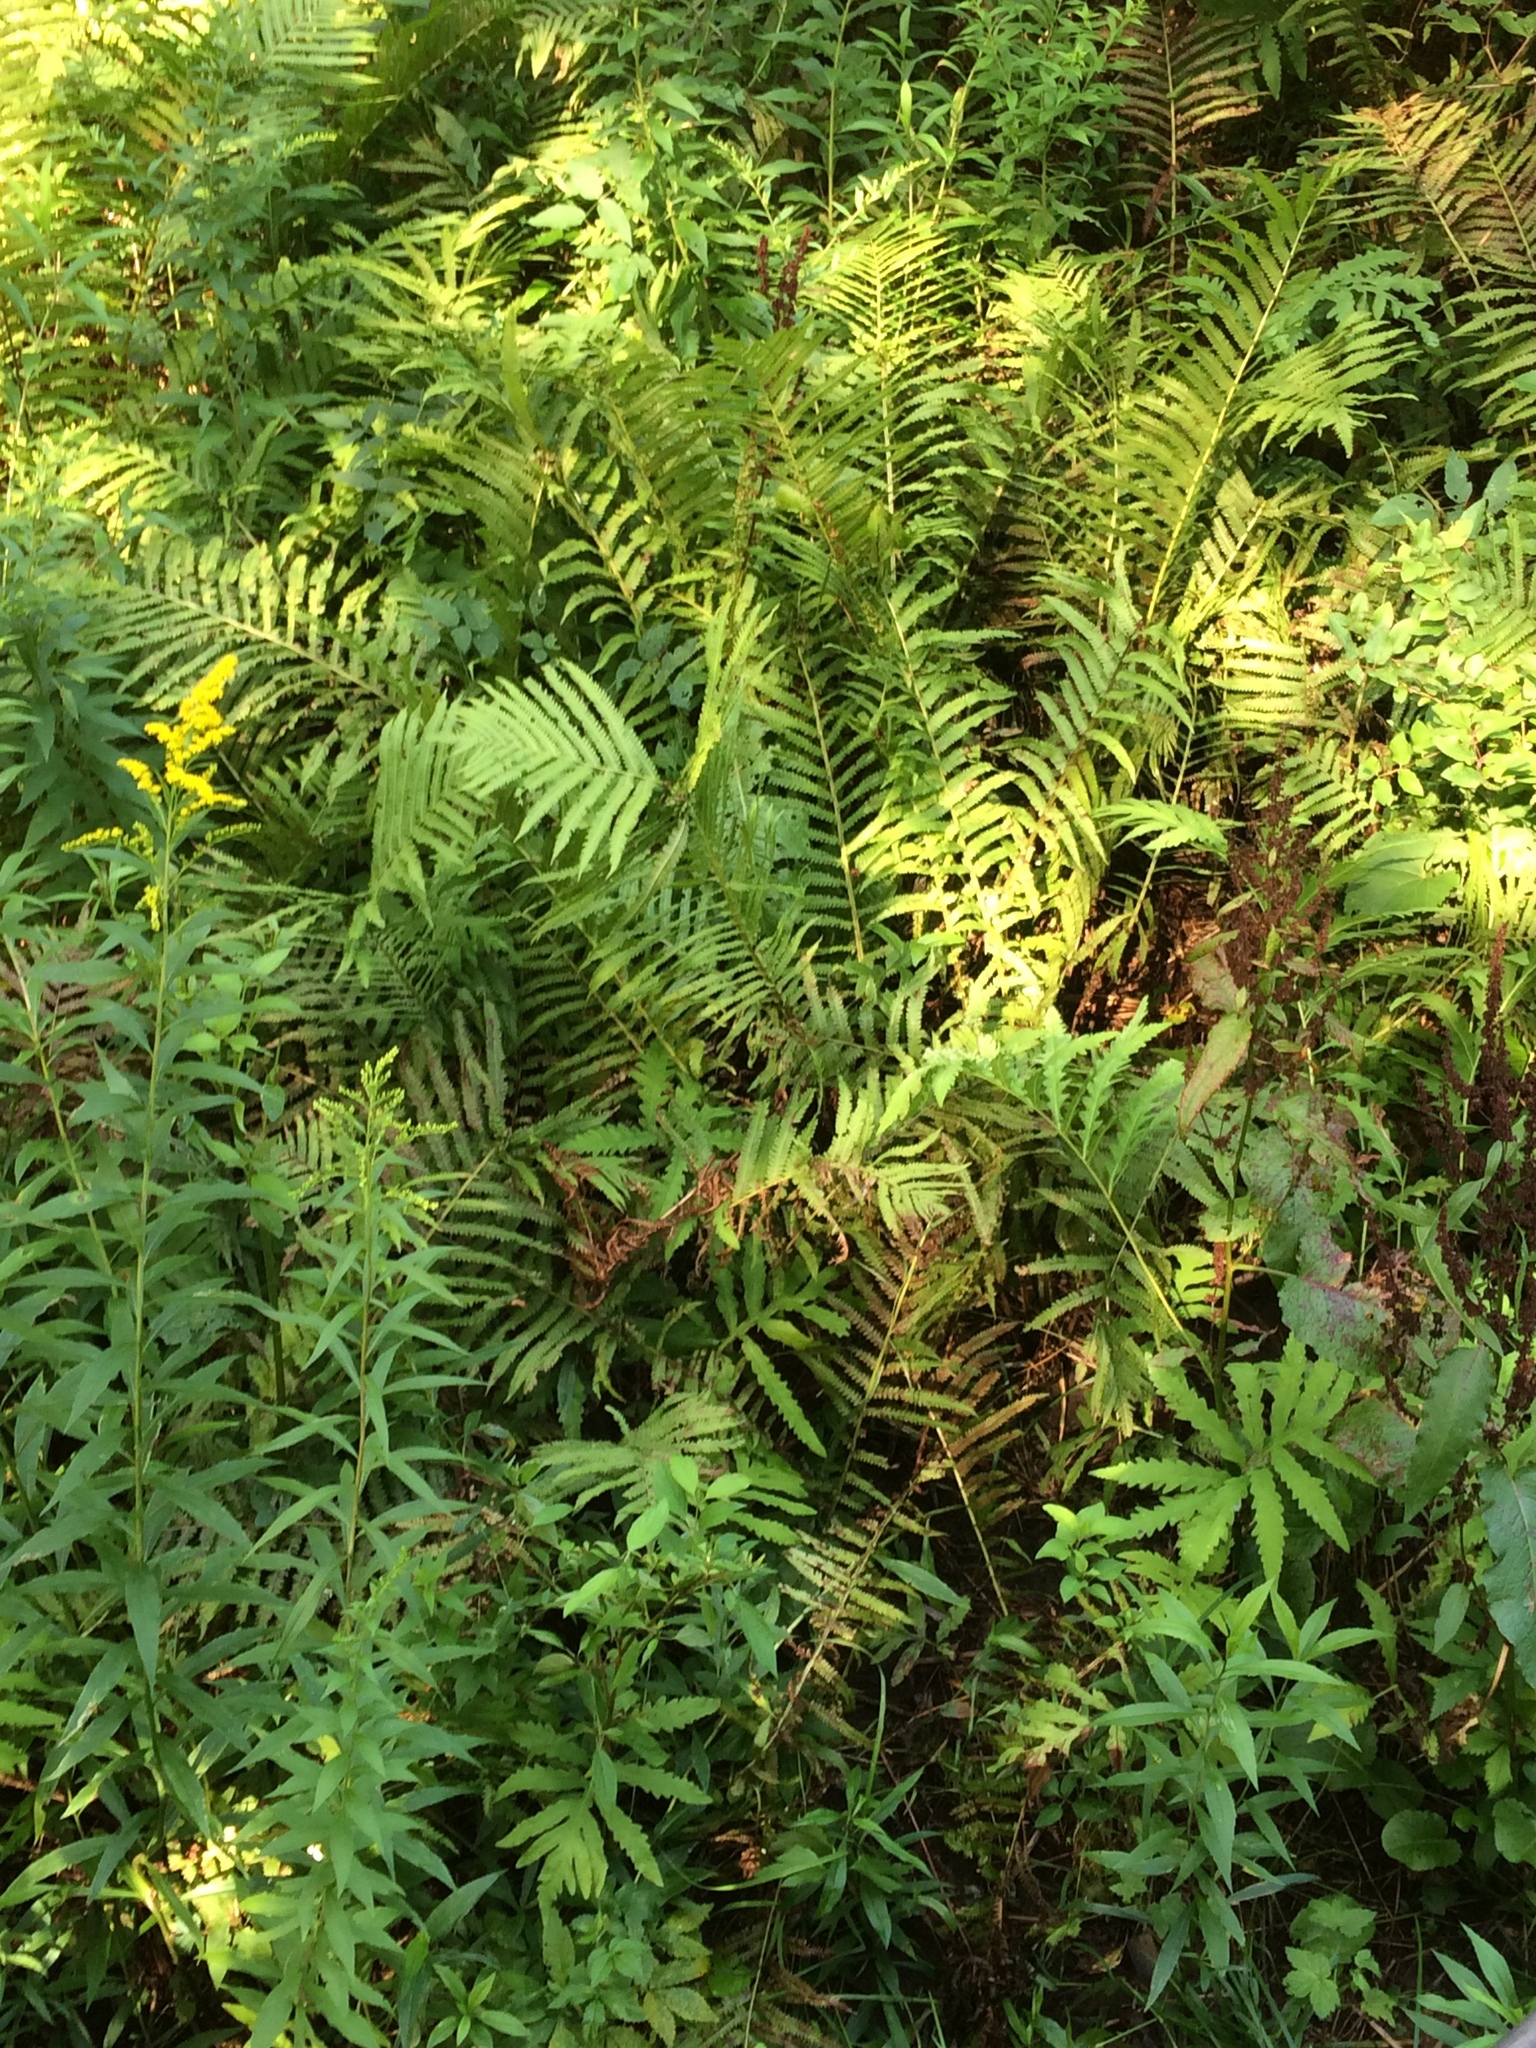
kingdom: Plantae
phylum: Tracheophyta
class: Polypodiopsida
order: Polypodiales
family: Onocleaceae
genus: Matteuccia
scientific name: Matteuccia struthiopteris
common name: Ostrich fern
